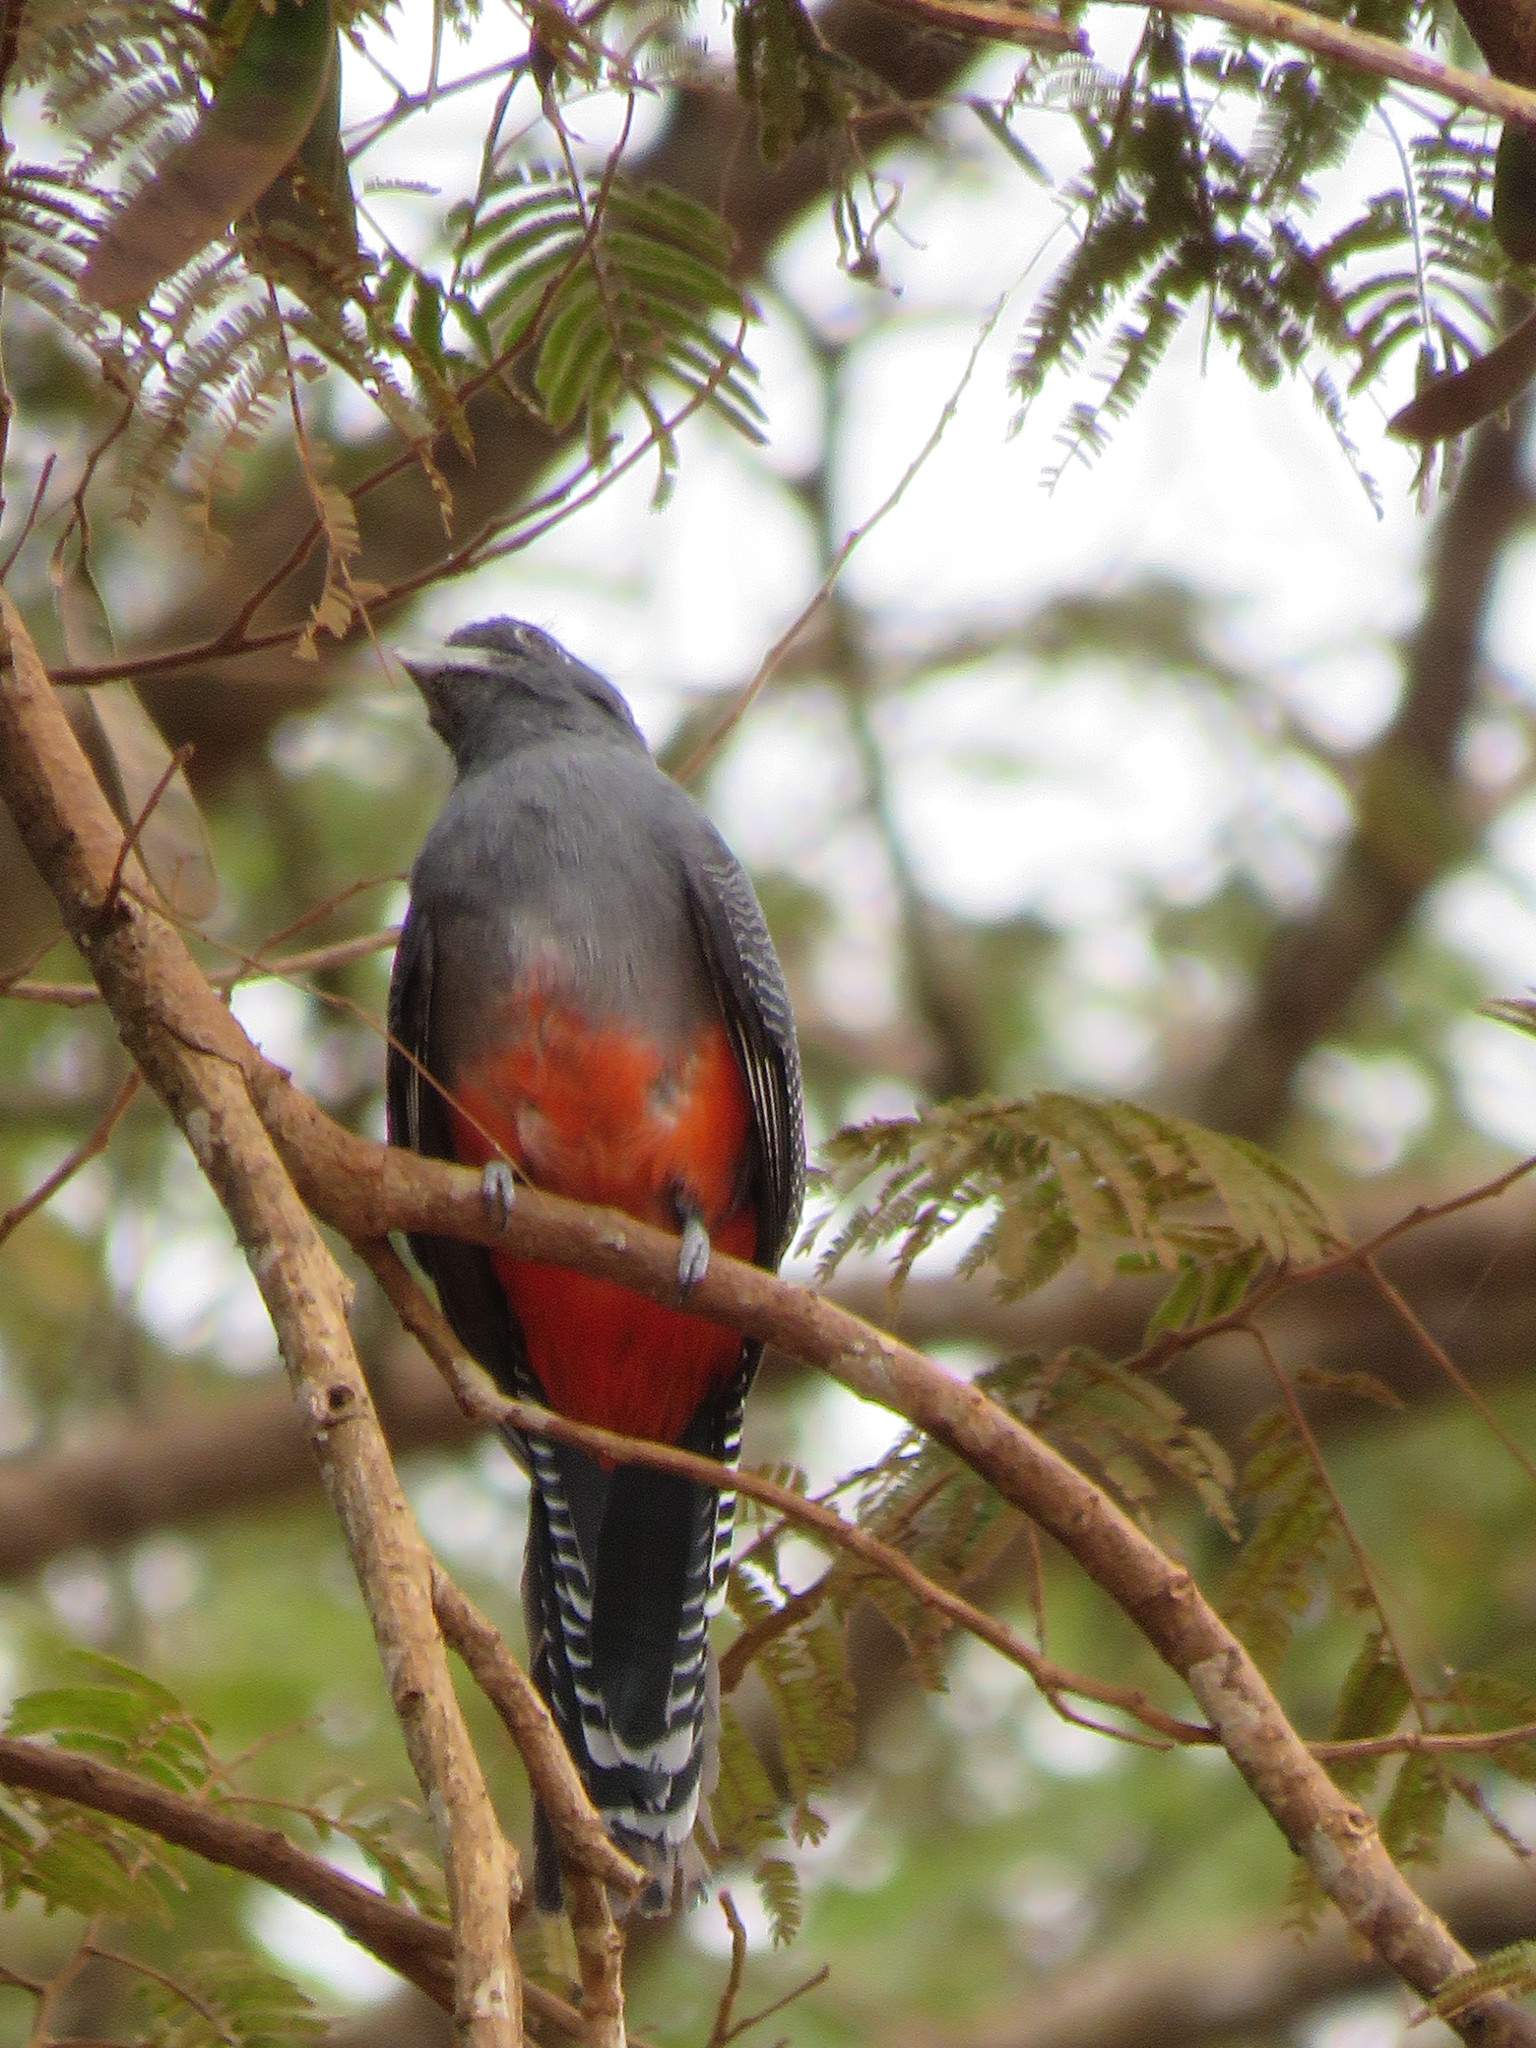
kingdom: Animalia
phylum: Chordata
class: Aves
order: Trogoniformes
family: Trogonidae
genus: Trogon
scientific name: Trogon curucui
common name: Blue-crowned trogon
